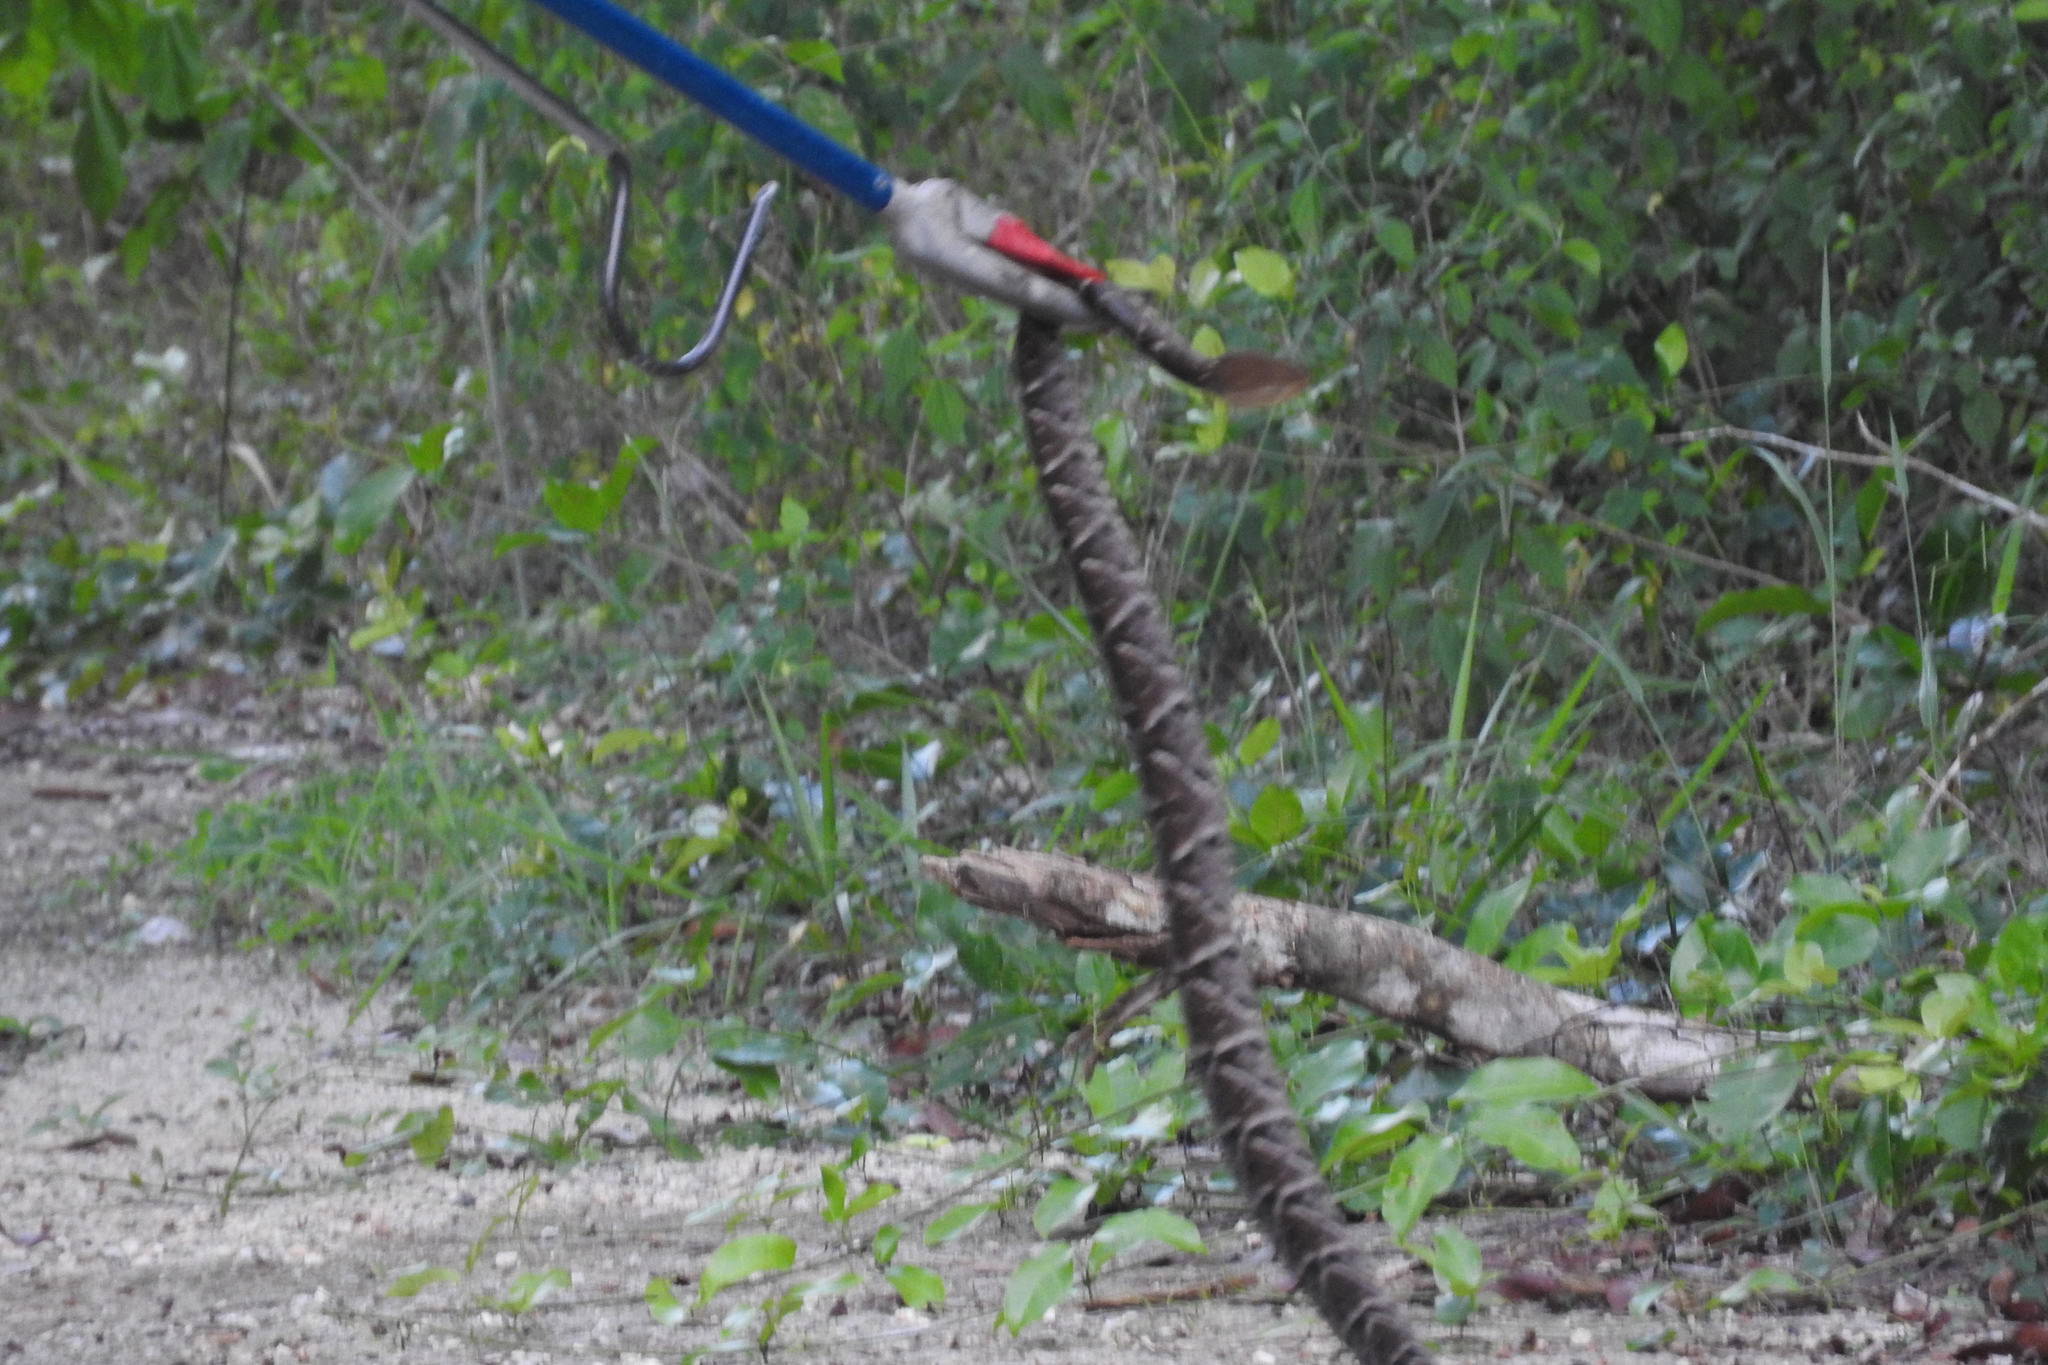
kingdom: Animalia
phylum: Chordata
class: Squamata
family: Viperidae
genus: Bothrops
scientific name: Bothrops asper
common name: Terciopelo
